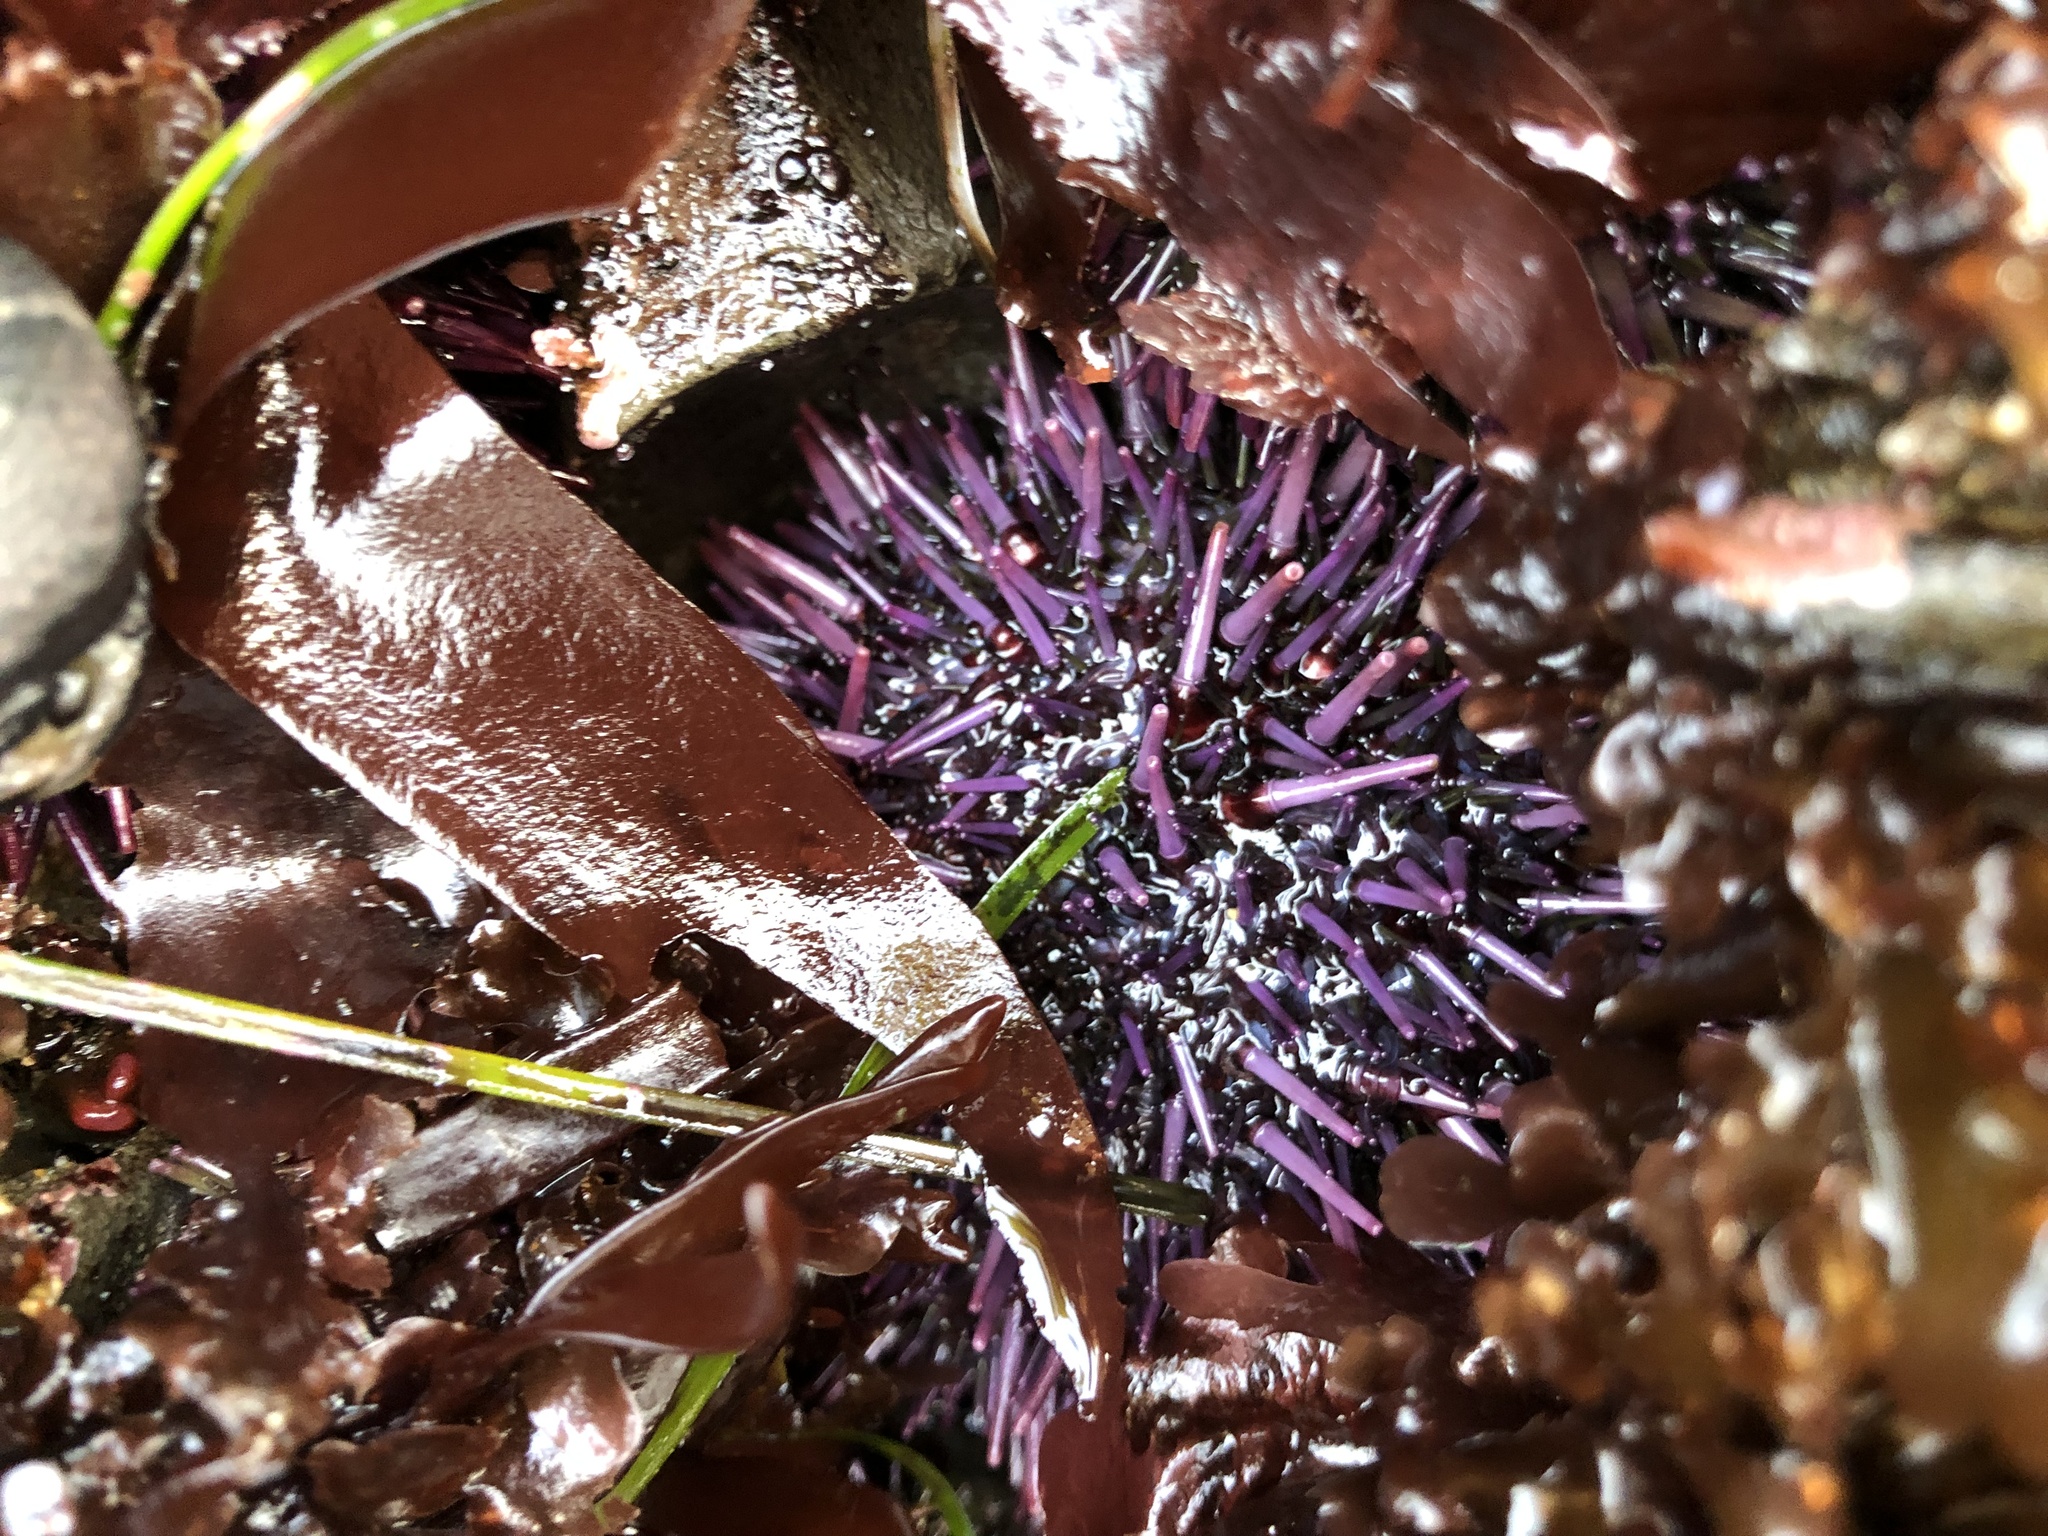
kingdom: Animalia
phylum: Echinodermata
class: Echinoidea
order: Camarodonta
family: Strongylocentrotidae
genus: Strongylocentrotus
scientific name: Strongylocentrotus purpuratus
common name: Purple sea urchin
